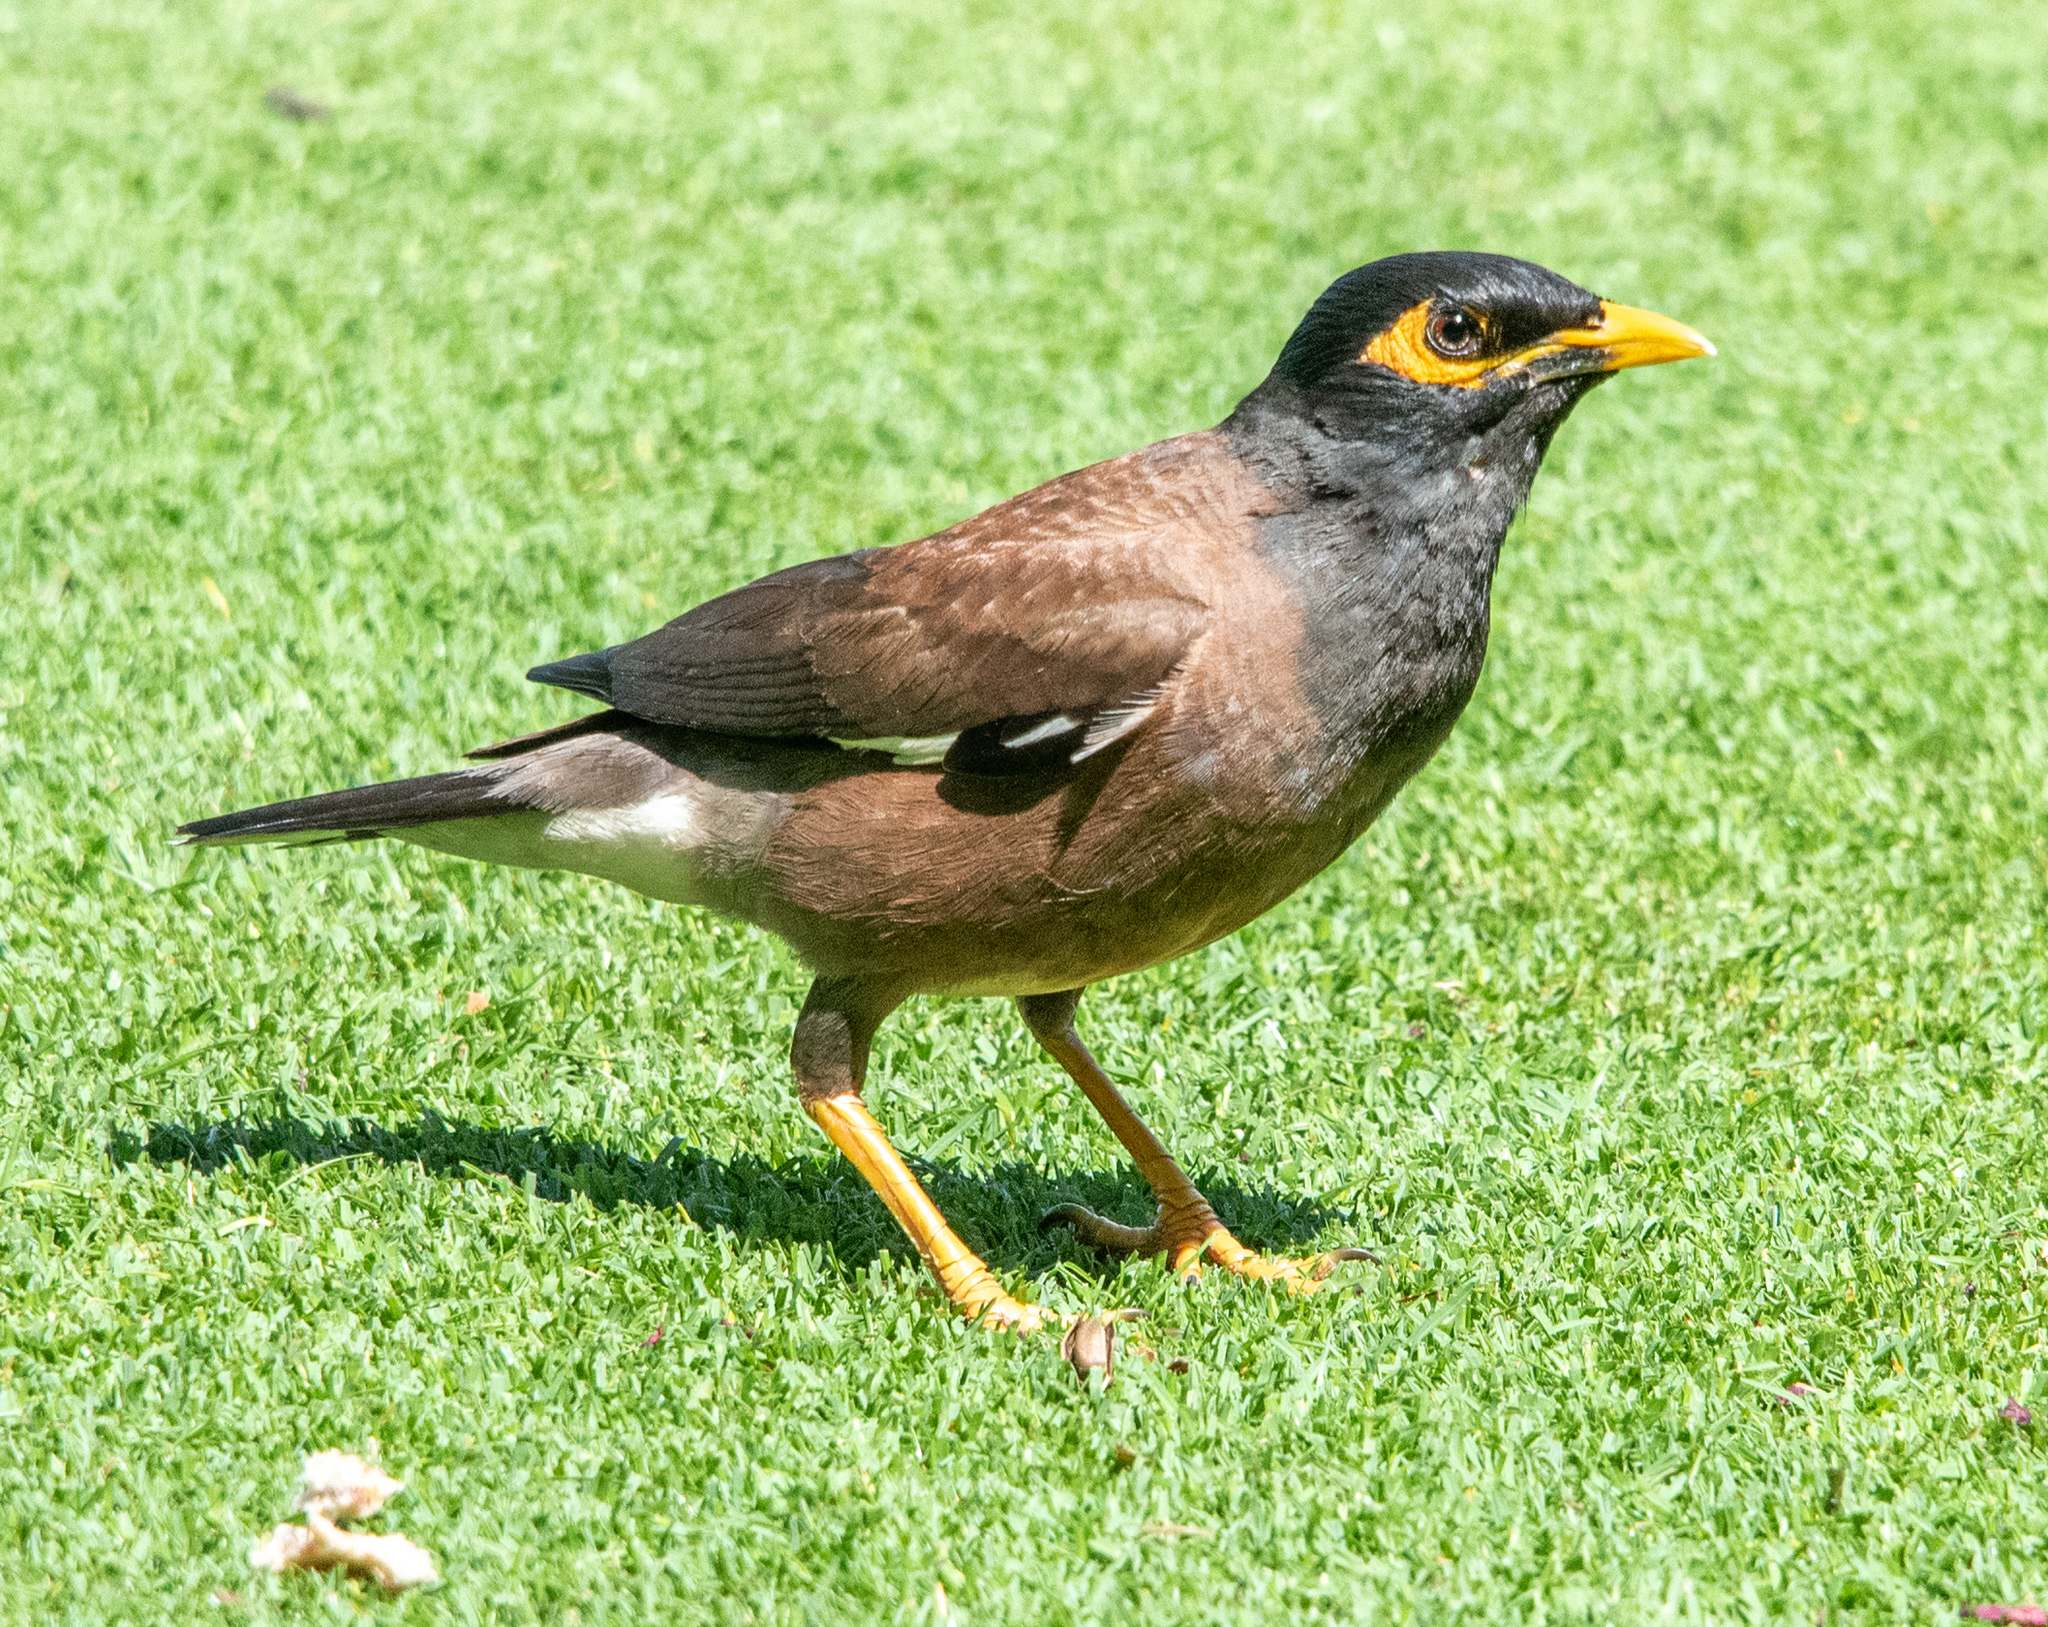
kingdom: Animalia
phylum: Chordata
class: Aves
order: Passeriformes
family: Sturnidae
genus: Acridotheres
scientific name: Acridotheres tristis
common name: Common myna
